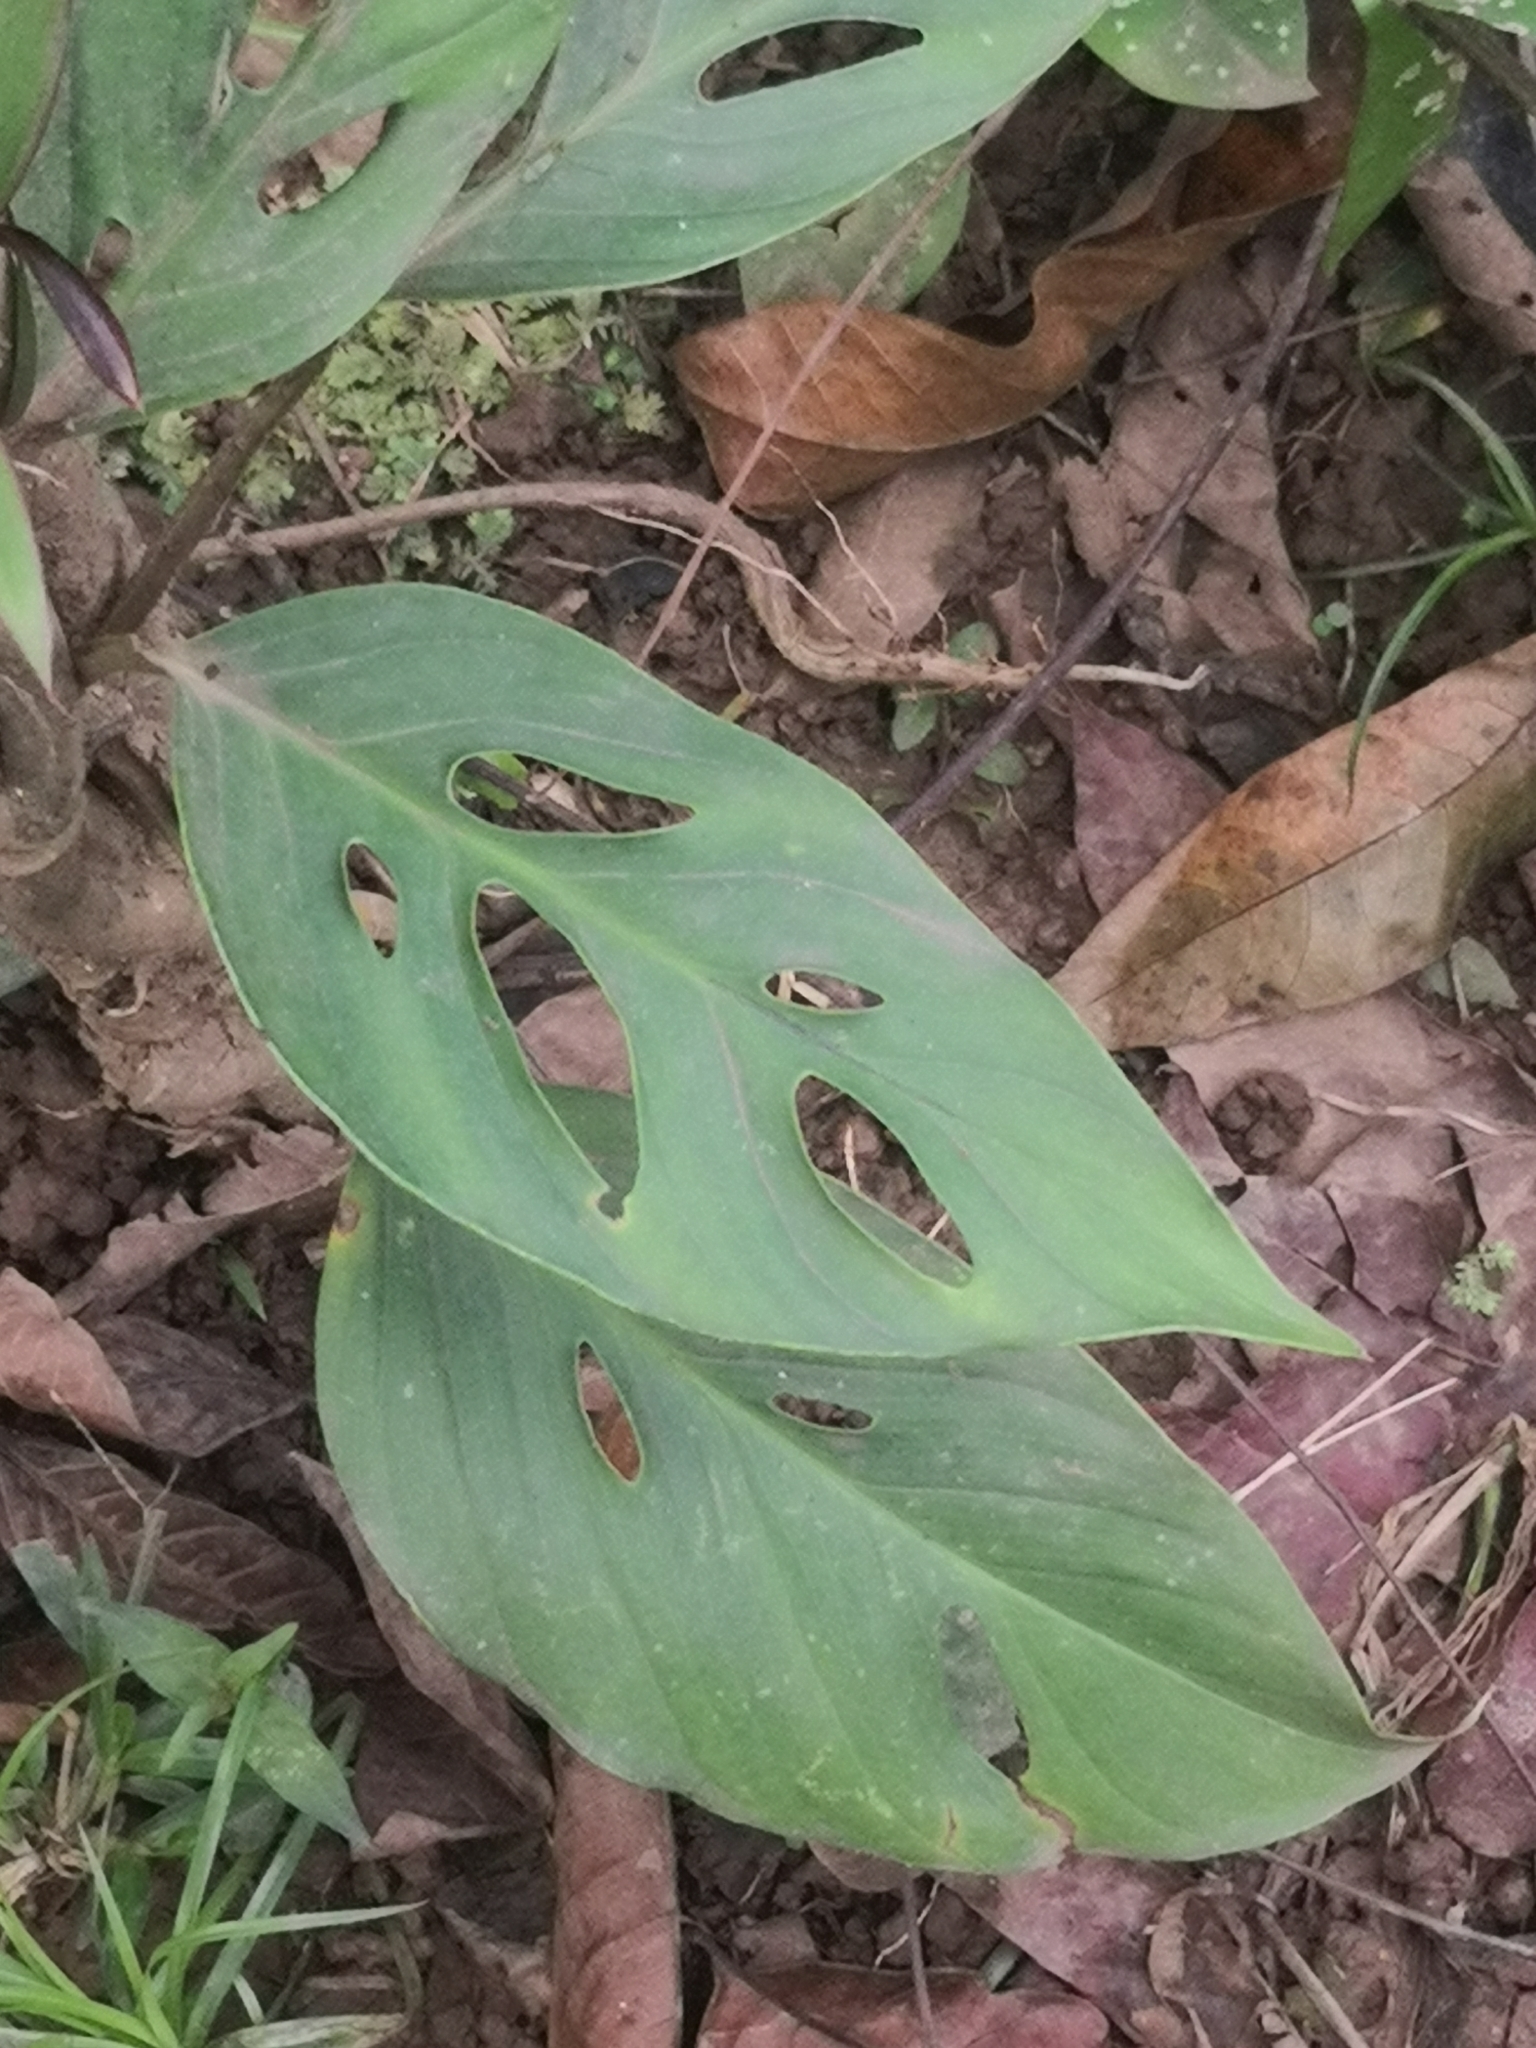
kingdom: Plantae
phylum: Tracheophyta
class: Liliopsida
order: Alismatales
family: Araceae
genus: Monstera
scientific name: Monstera adansonii
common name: Tarovine
